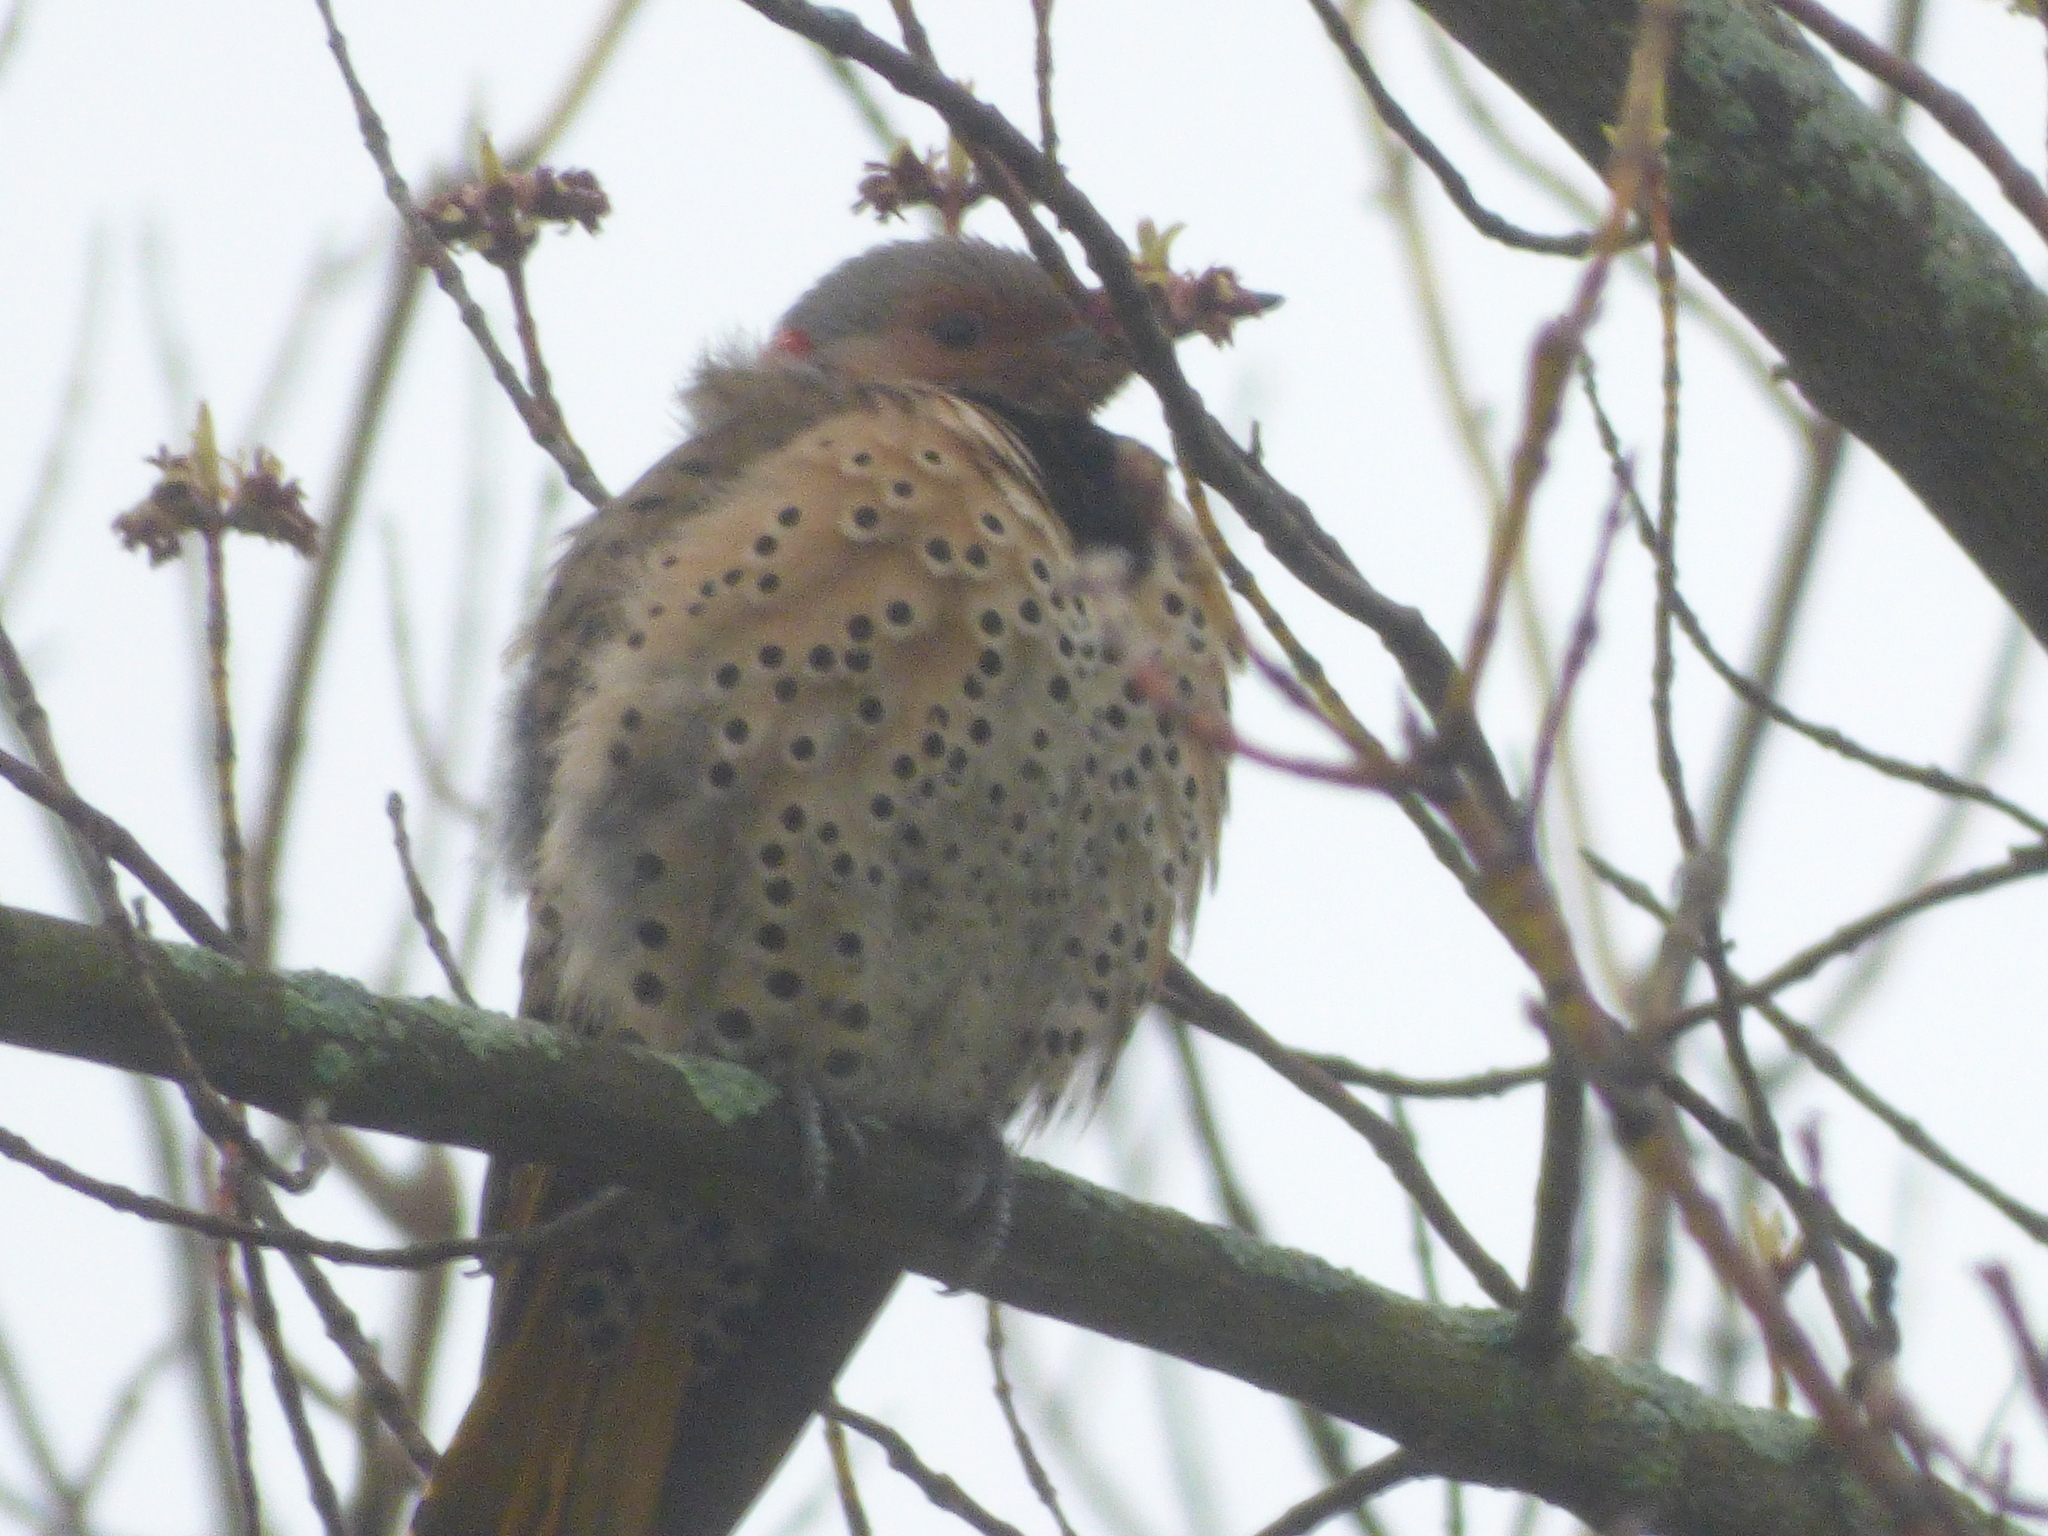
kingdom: Animalia
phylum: Chordata
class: Aves
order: Piciformes
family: Picidae
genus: Colaptes
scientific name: Colaptes auratus
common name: Northern flicker
